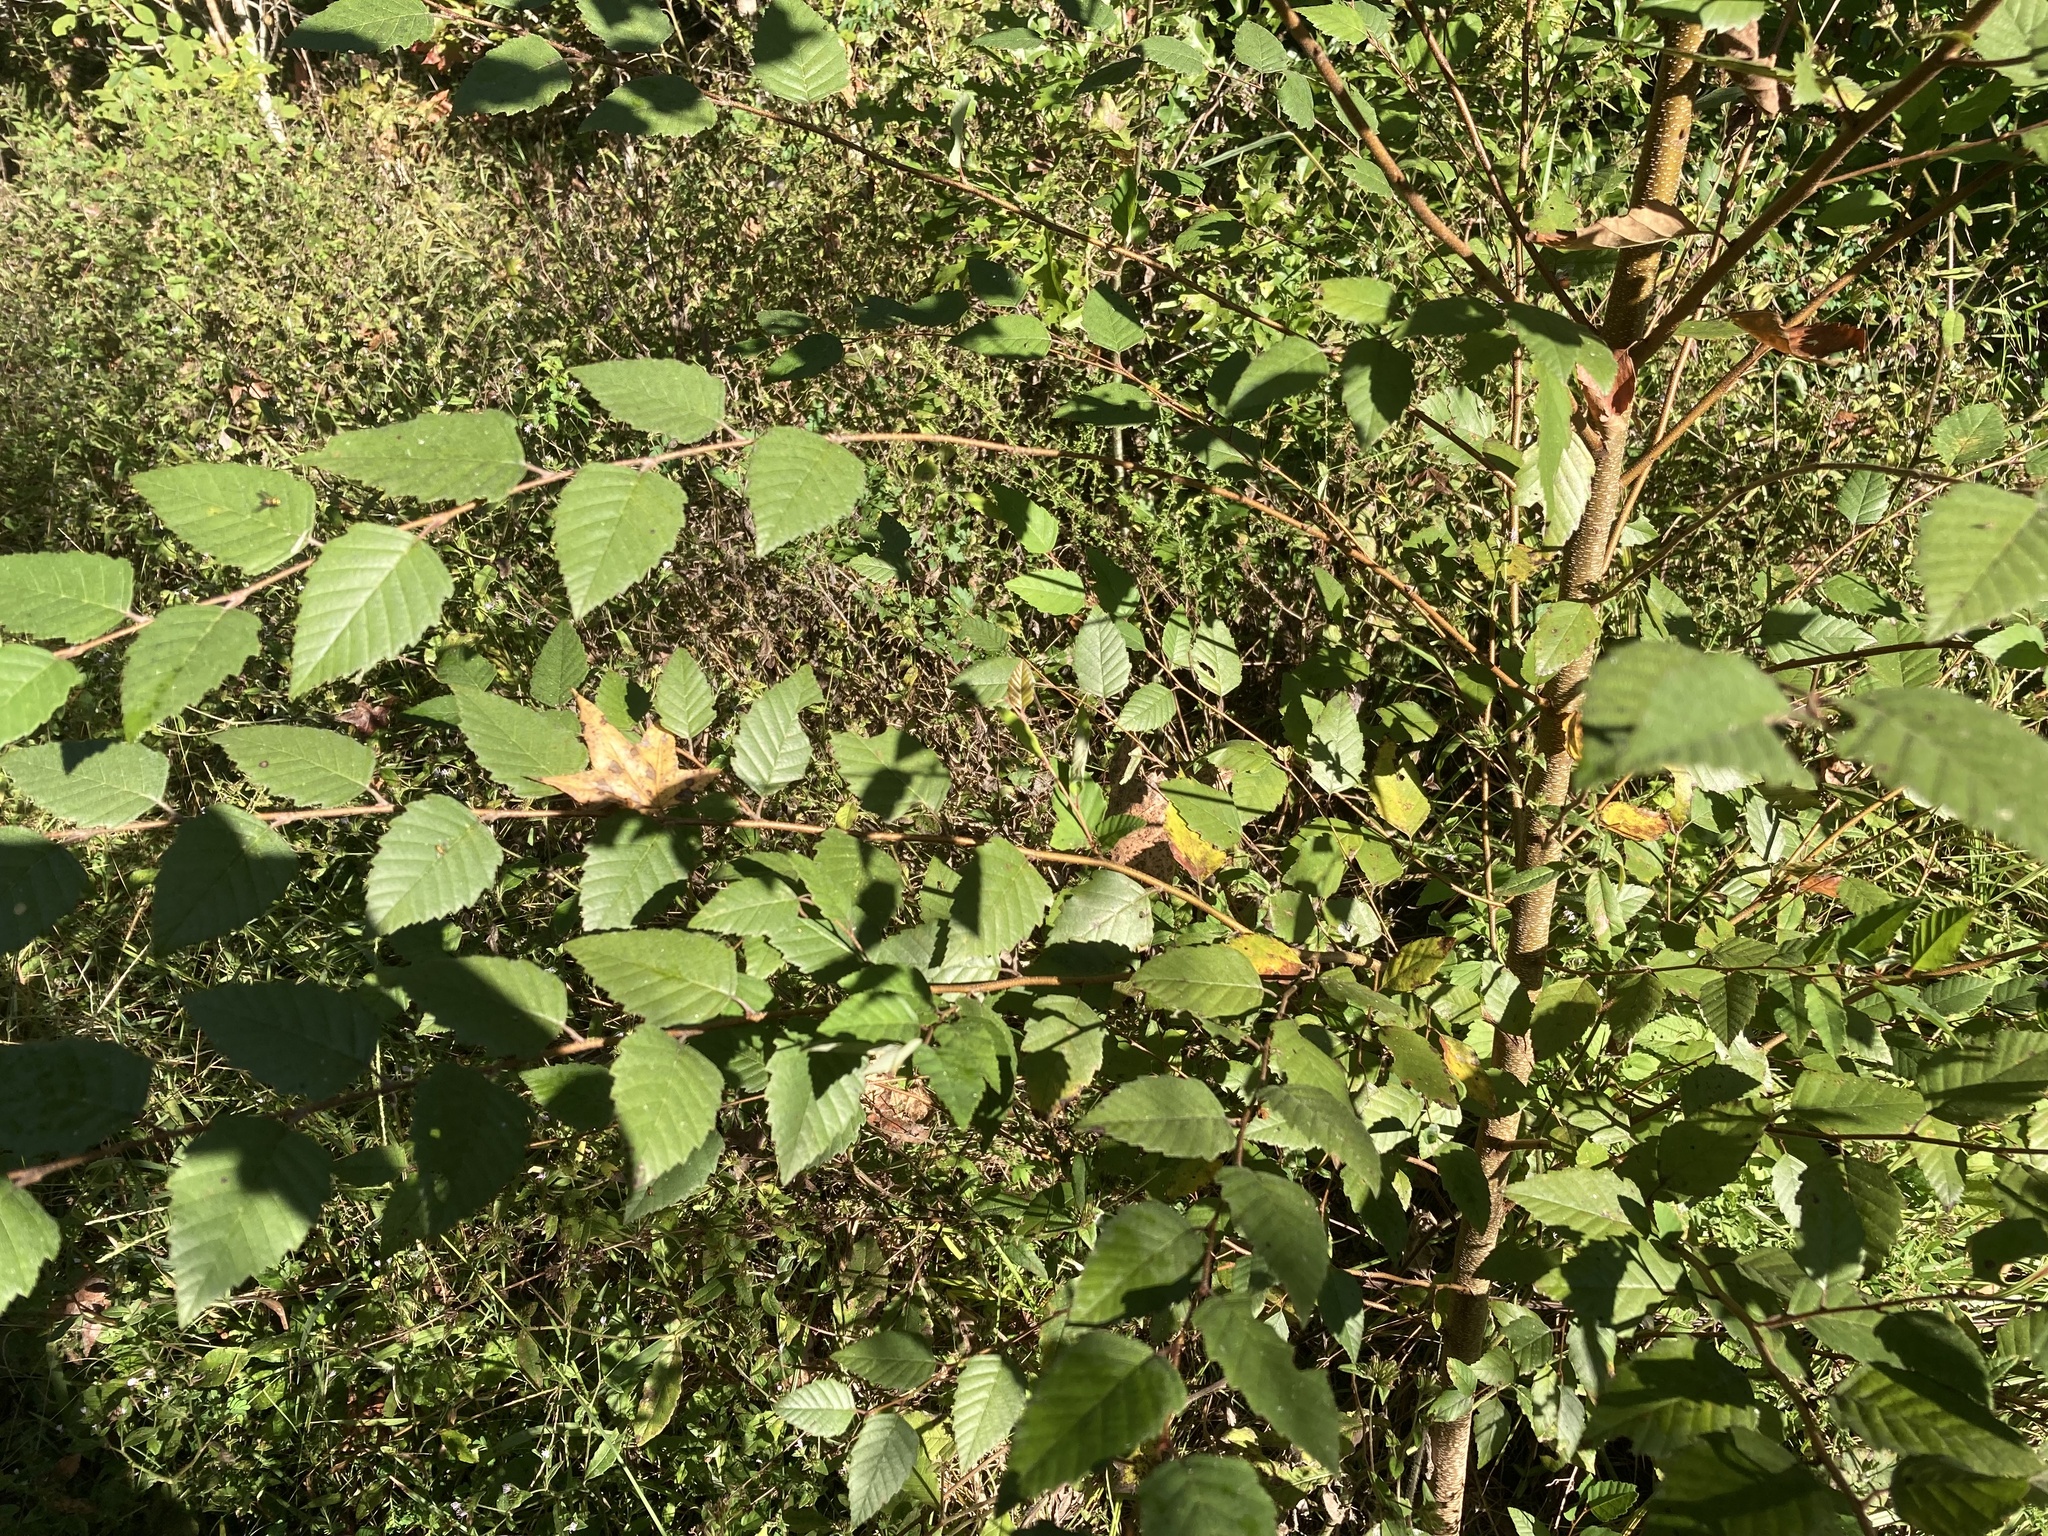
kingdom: Plantae
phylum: Tracheophyta
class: Magnoliopsida
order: Fagales
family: Betulaceae
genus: Betula
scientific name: Betula nigra
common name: Black birch
